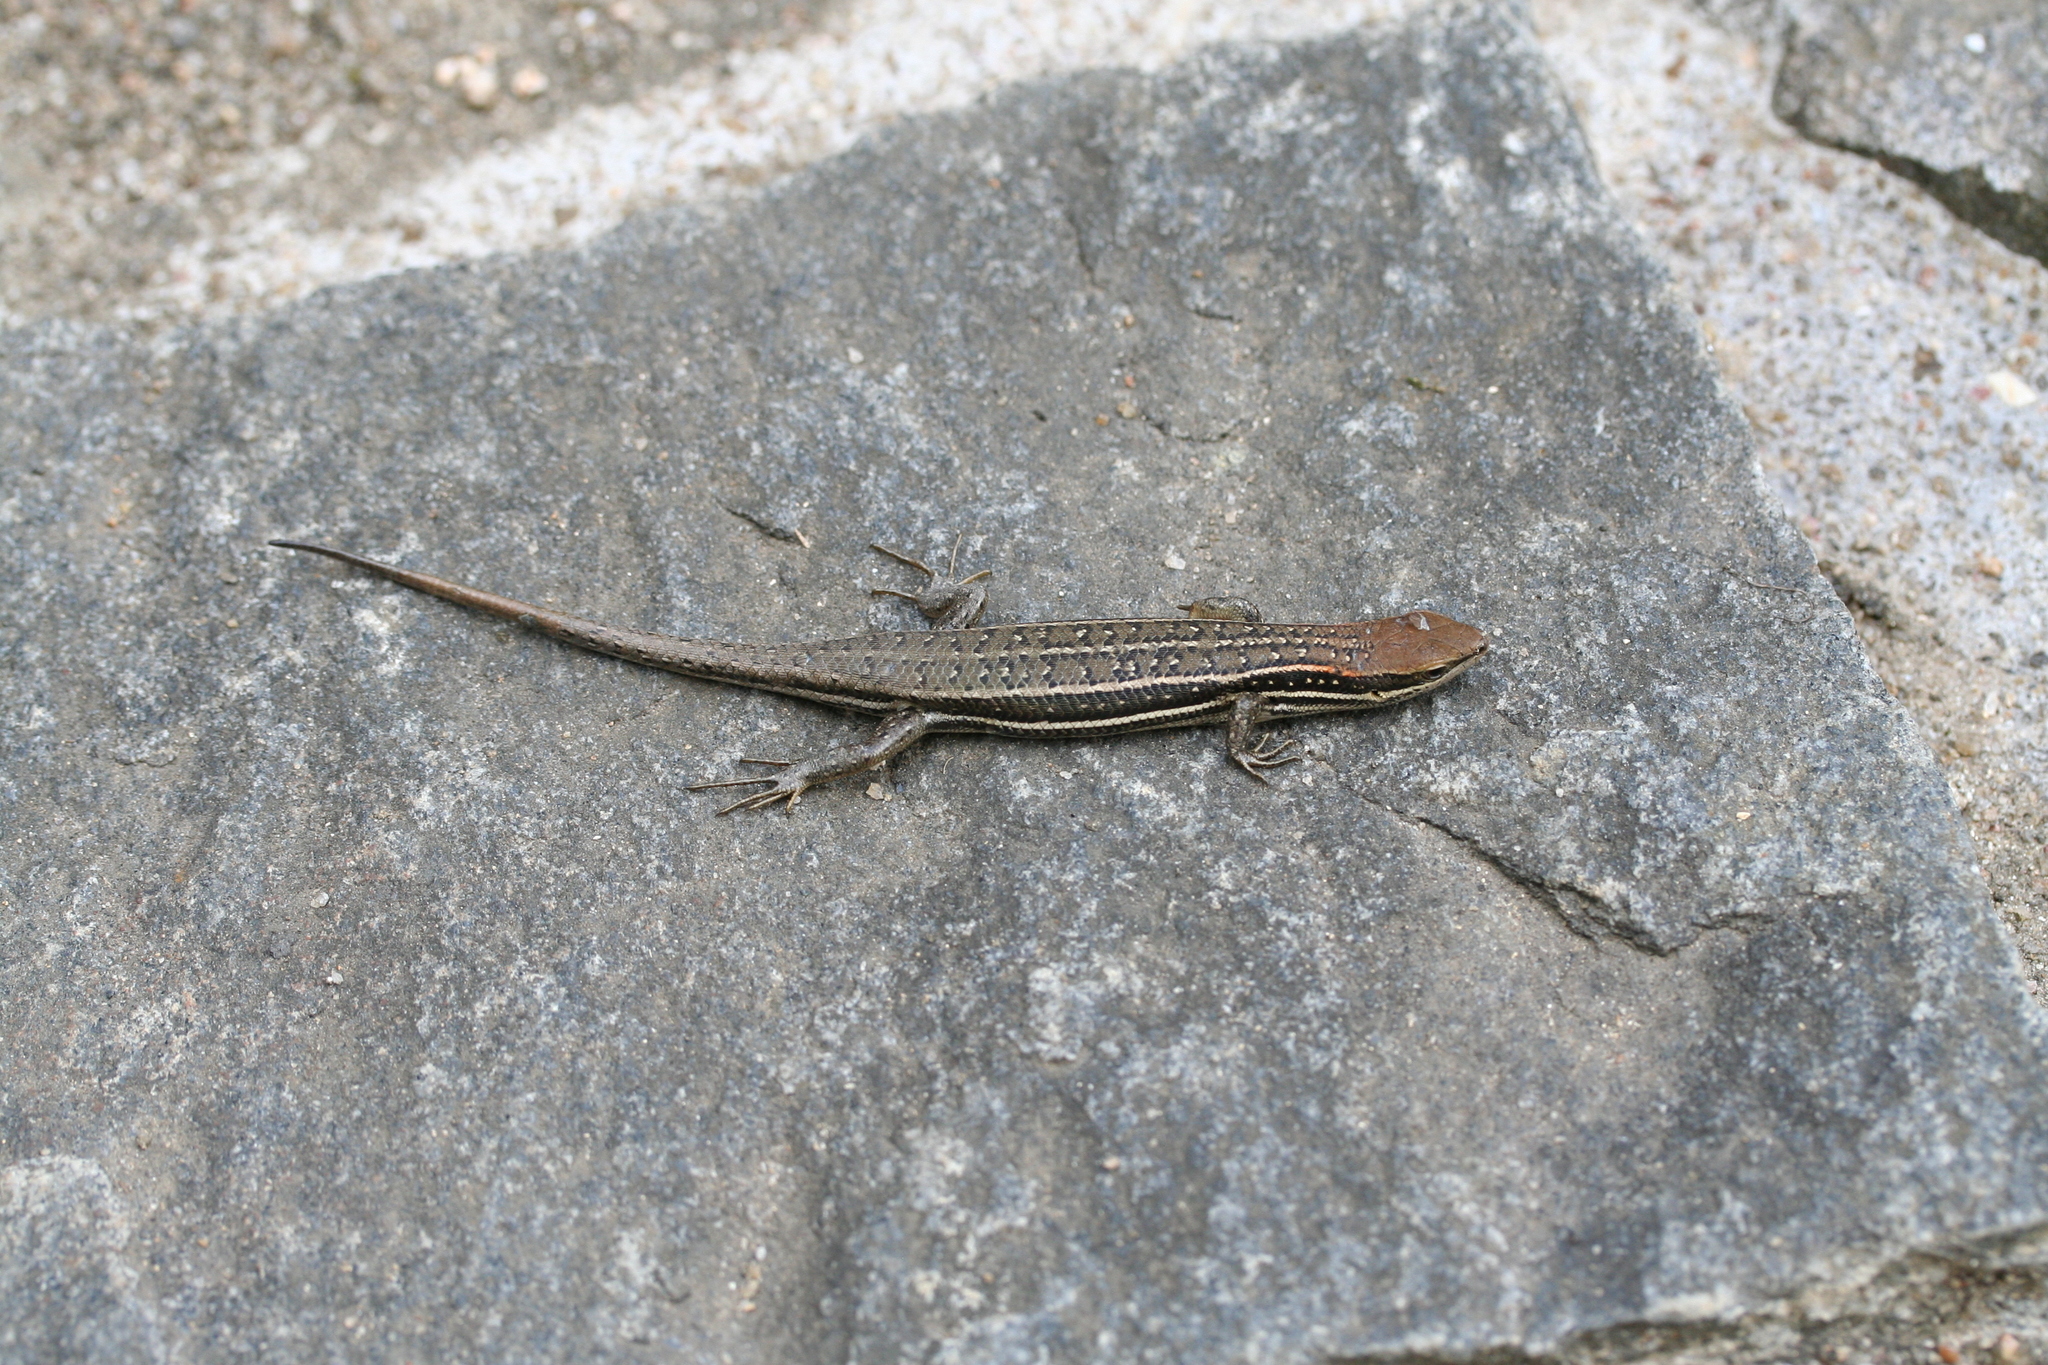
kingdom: Animalia
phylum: Chordata
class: Squamata
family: Scincidae
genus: Trachylepis
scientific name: Trachylepis elegans
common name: Elegant mabuya
